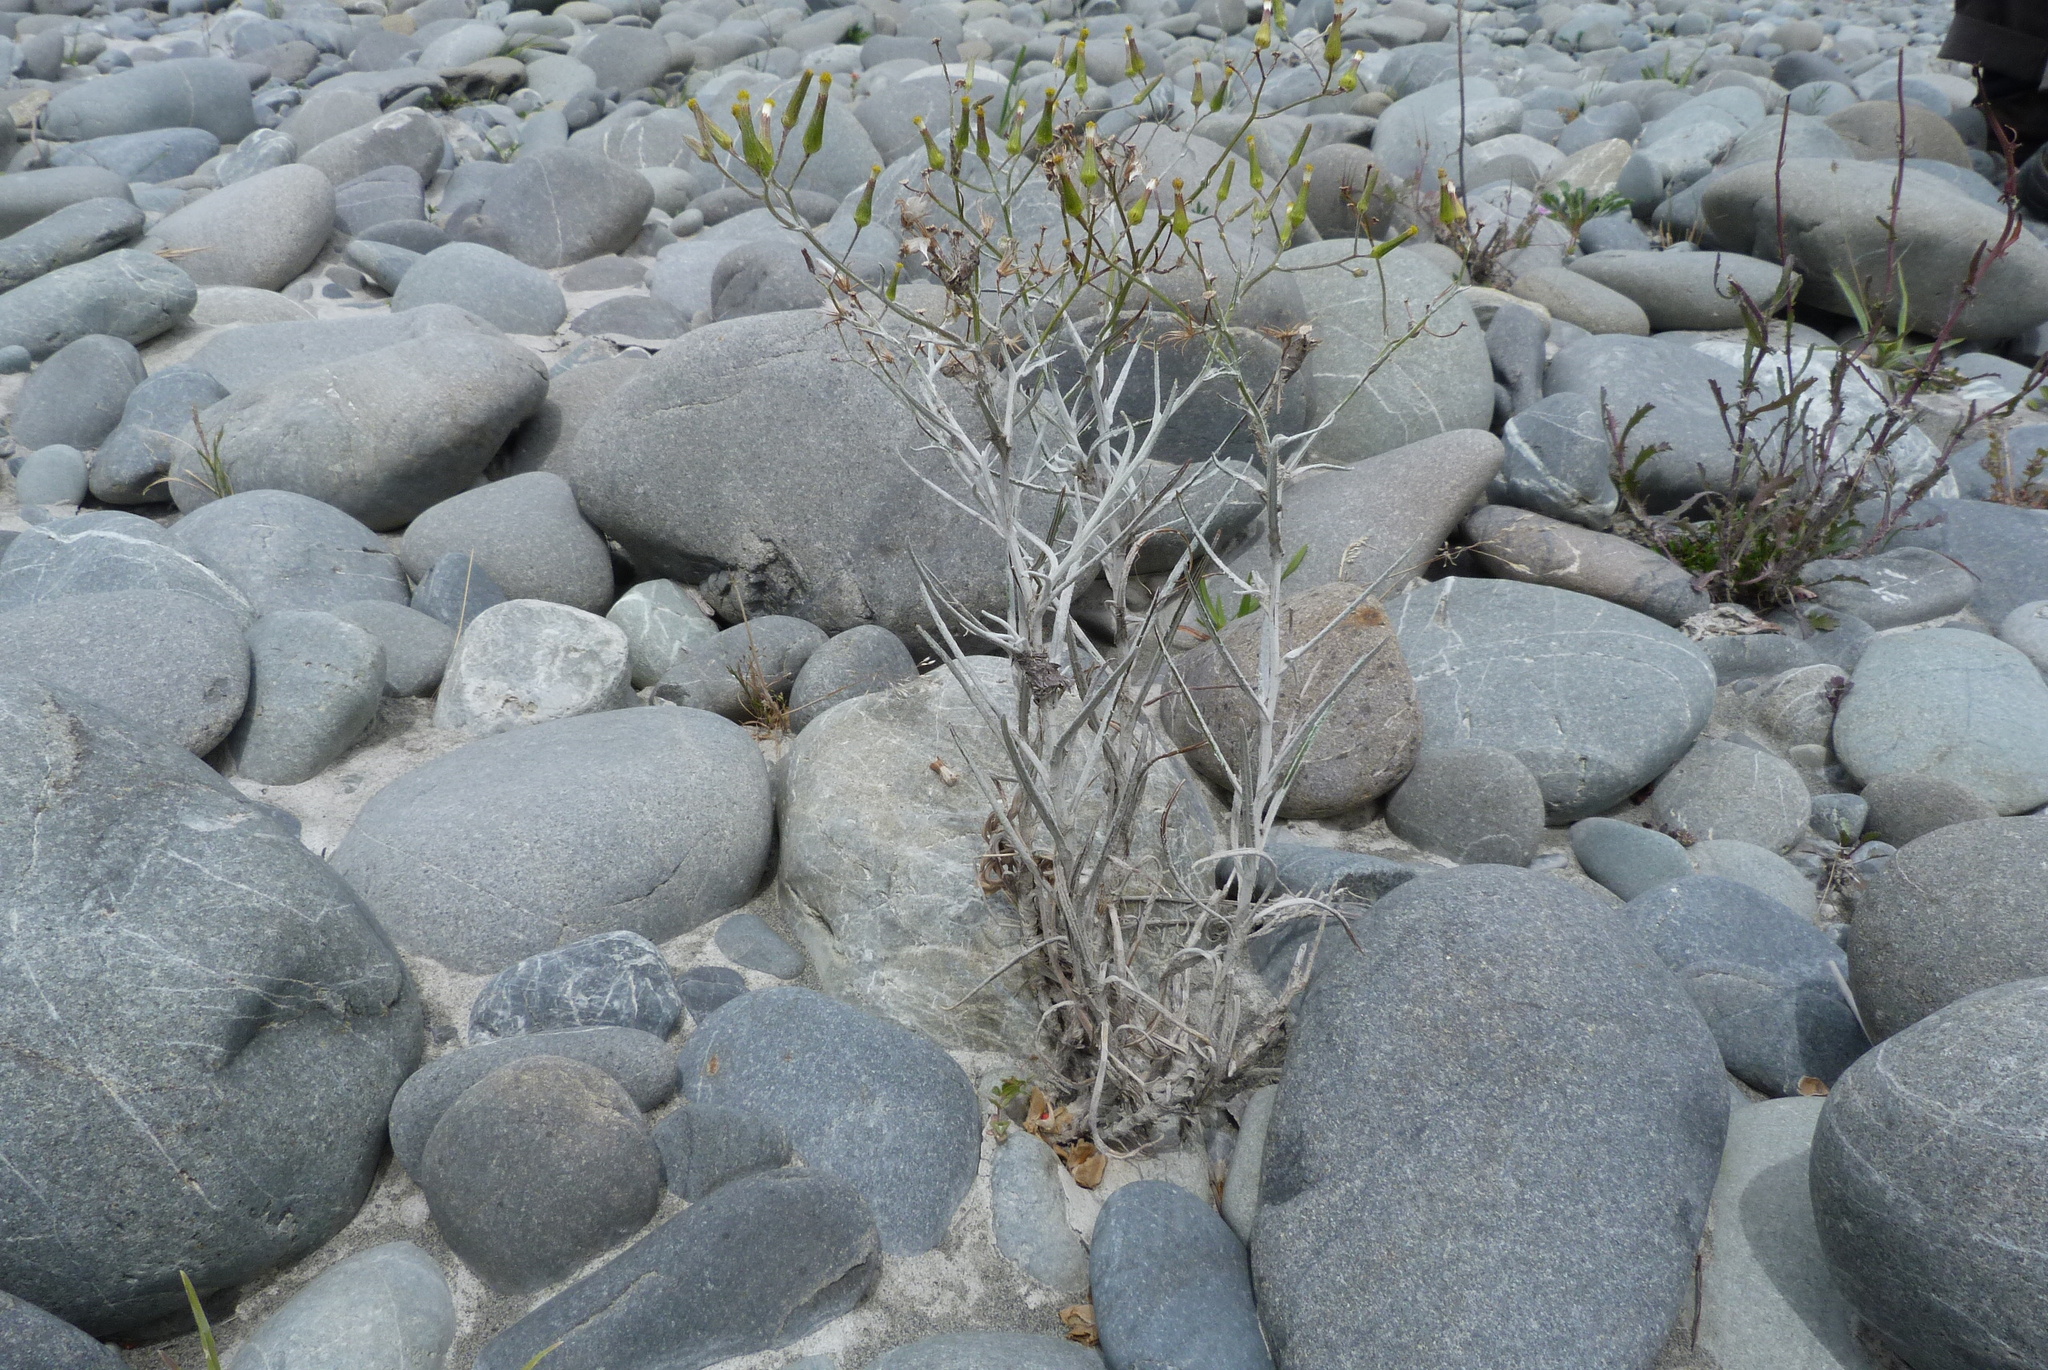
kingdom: Plantae
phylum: Tracheophyta
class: Magnoliopsida
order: Asterales
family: Asteraceae
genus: Senecio
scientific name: Senecio quadridentatus
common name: Cotton fireweed
